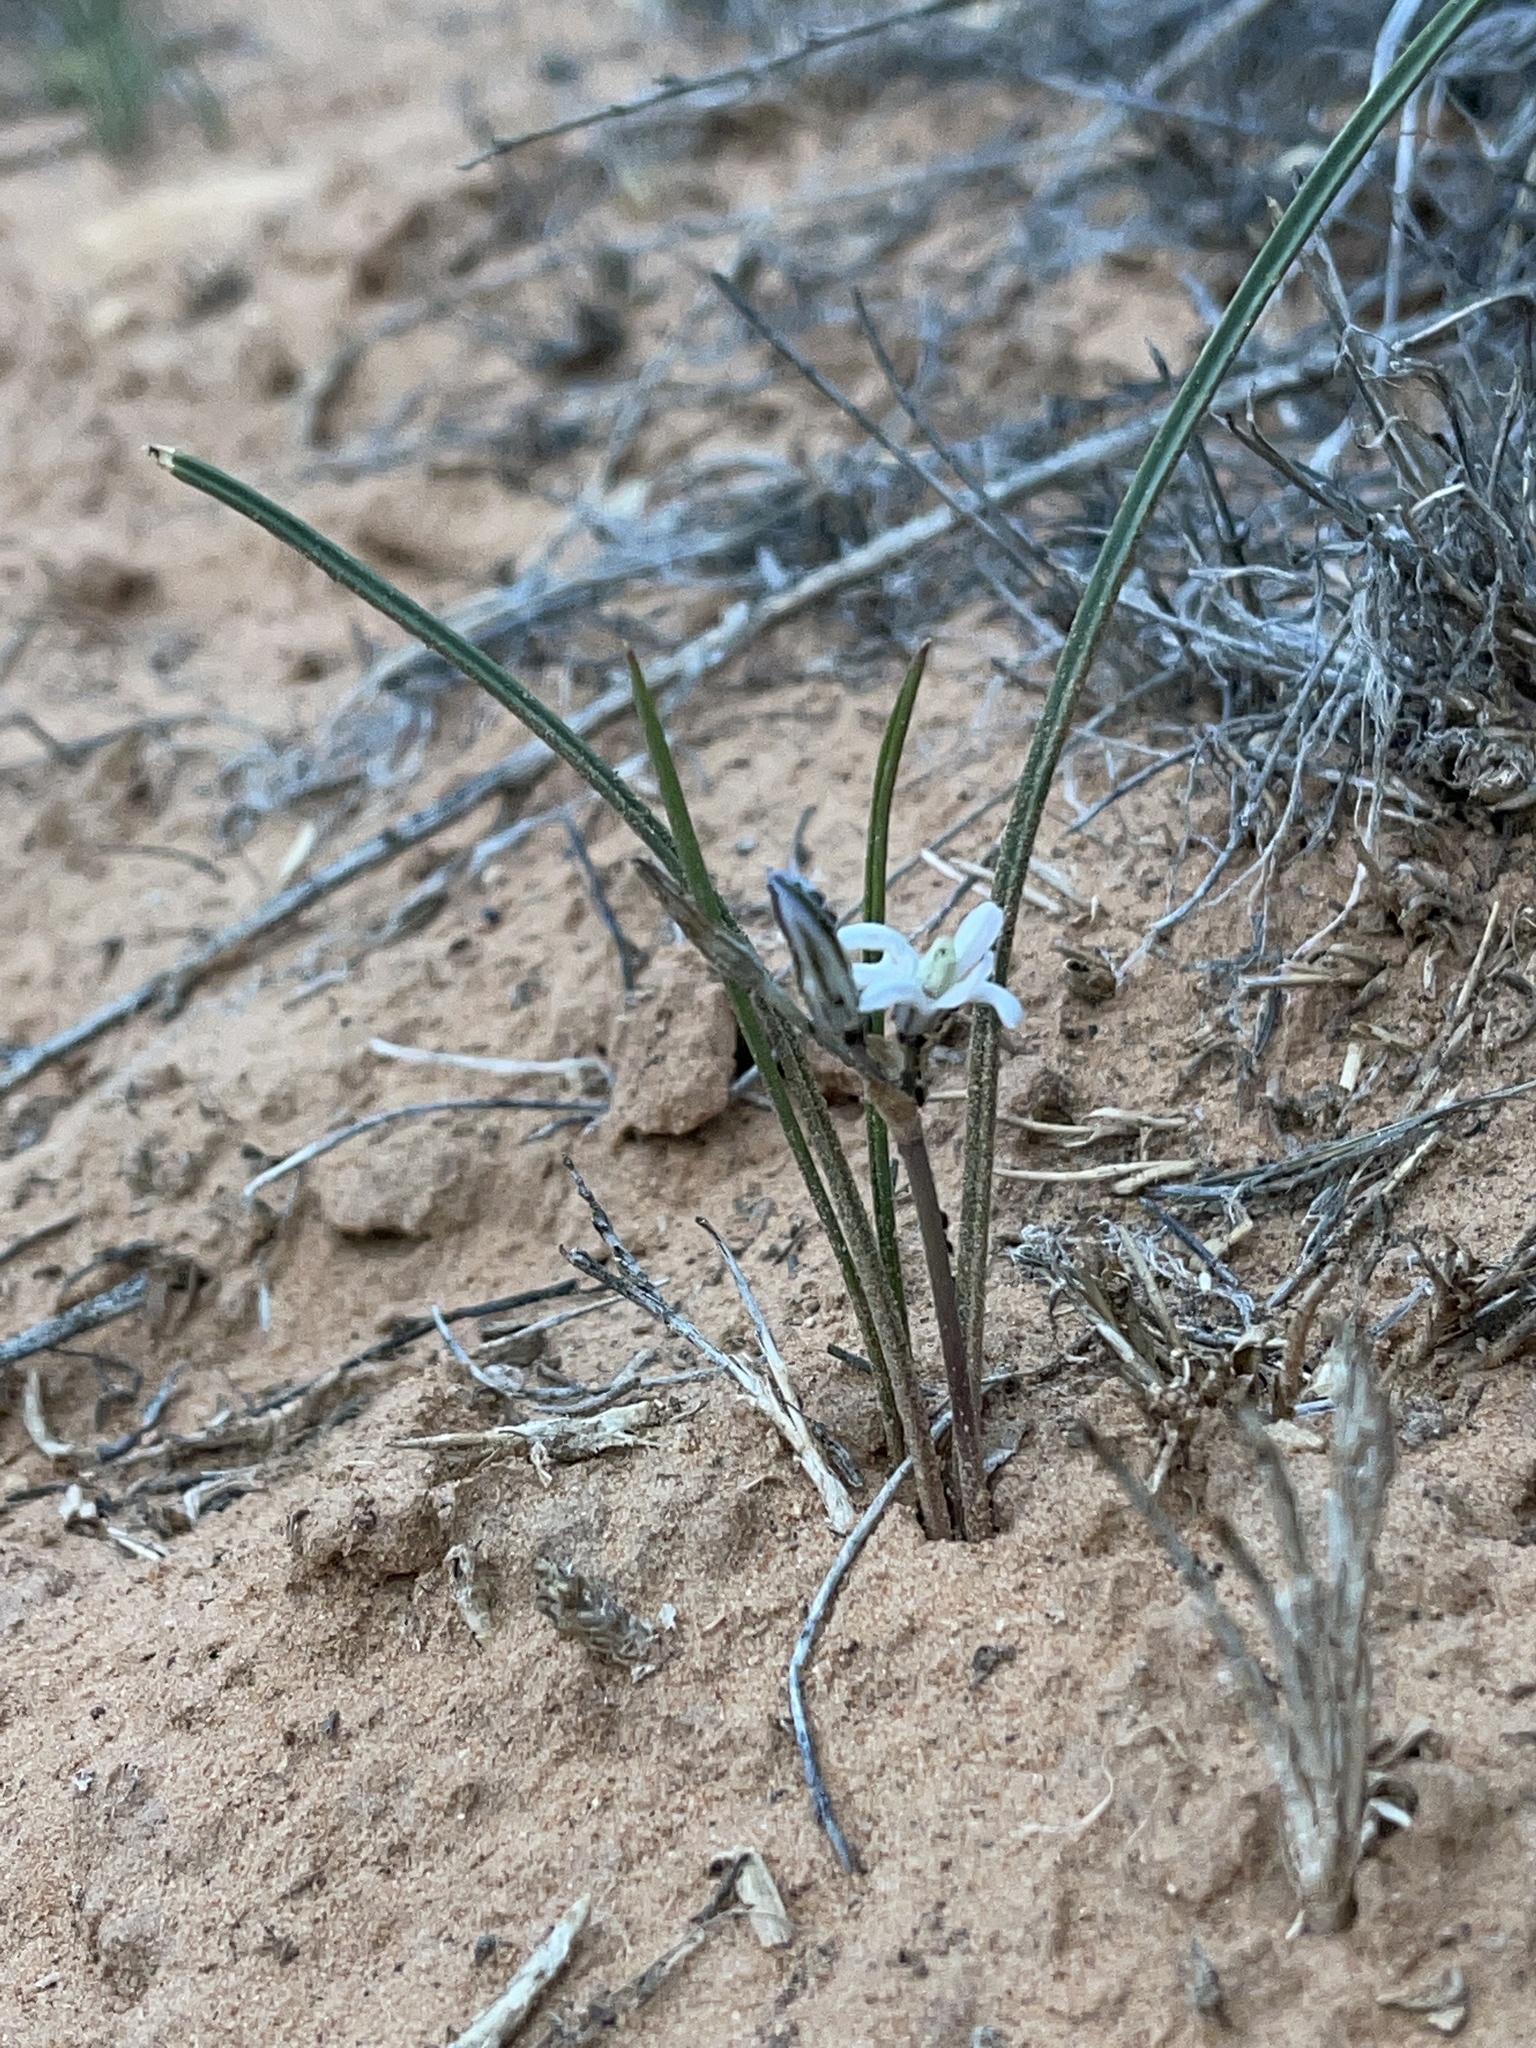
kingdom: Plantae
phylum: Tracheophyta
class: Liliopsida
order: Asparagales
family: Asparagaceae
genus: Androstephium
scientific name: Androstephium breviflorum
